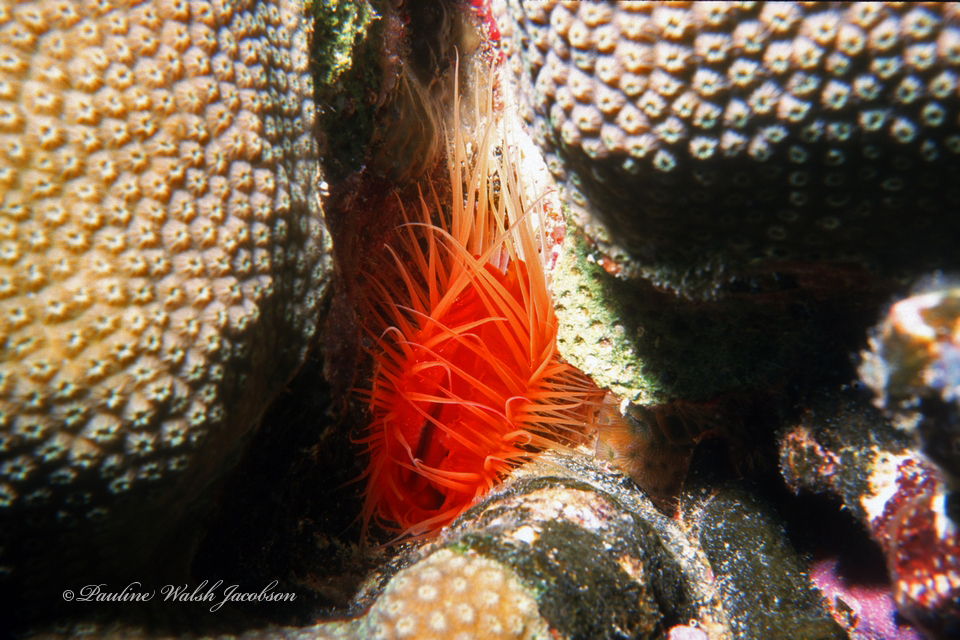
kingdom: Animalia
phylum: Mollusca
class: Bivalvia
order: Limida
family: Limidae
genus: Ctenoides
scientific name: Ctenoides scaber
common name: Rough fileclam
